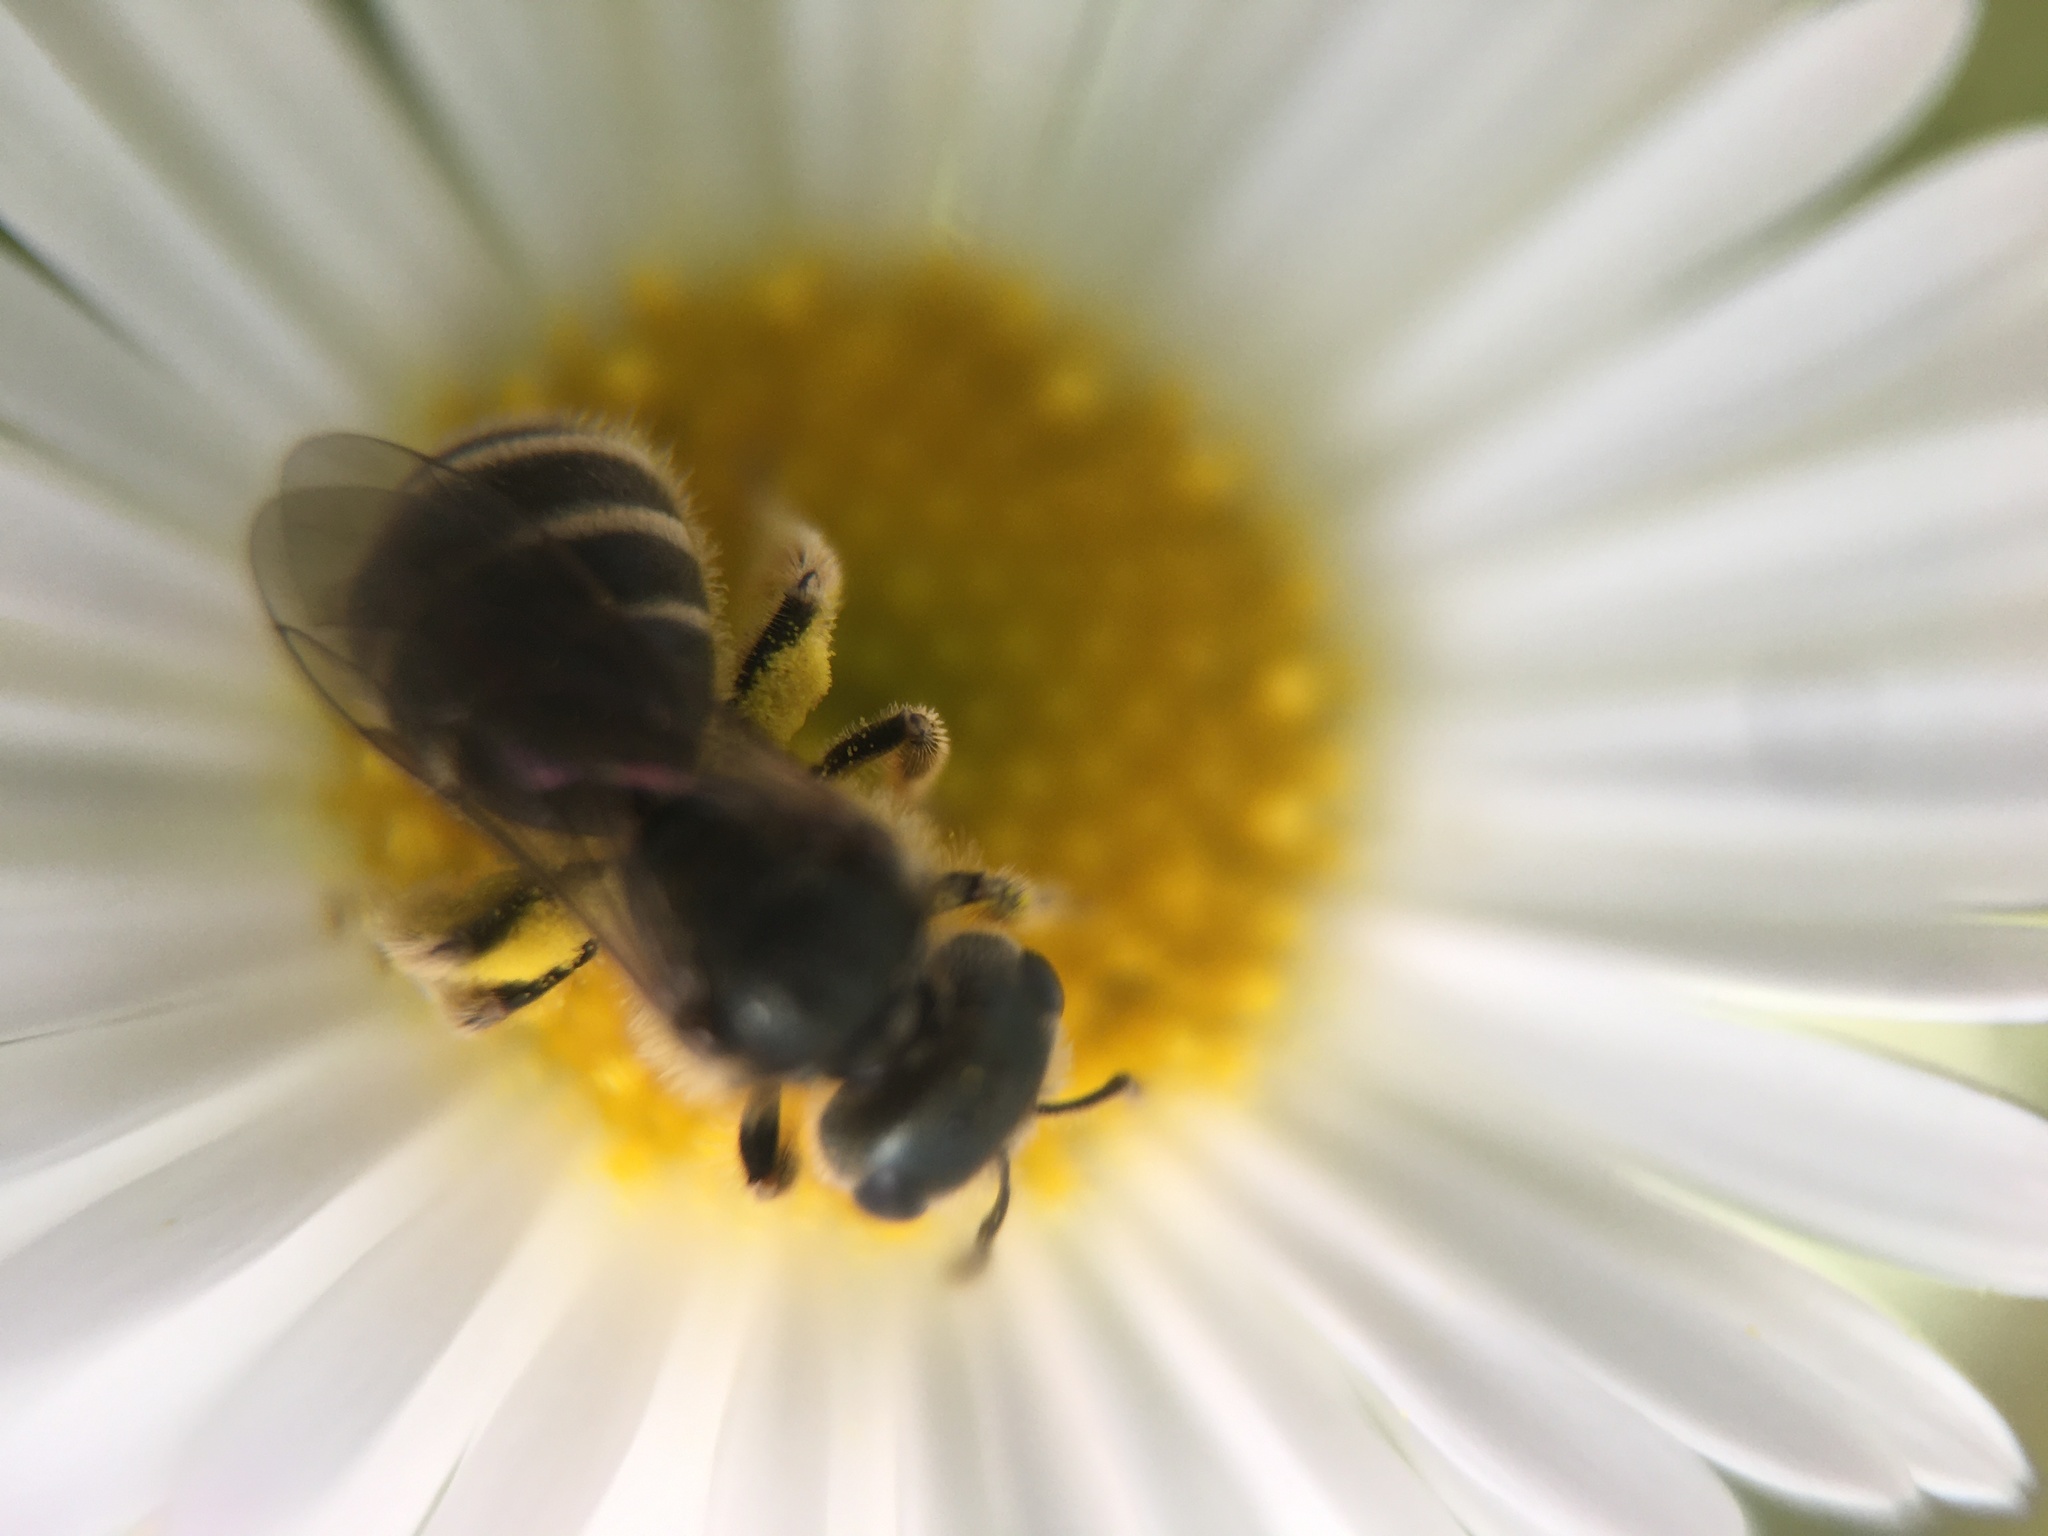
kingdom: Animalia
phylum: Arthropoda
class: Insecta
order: Hymenoptera
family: Halictidae
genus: Halictus
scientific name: Halictus tripartitus
